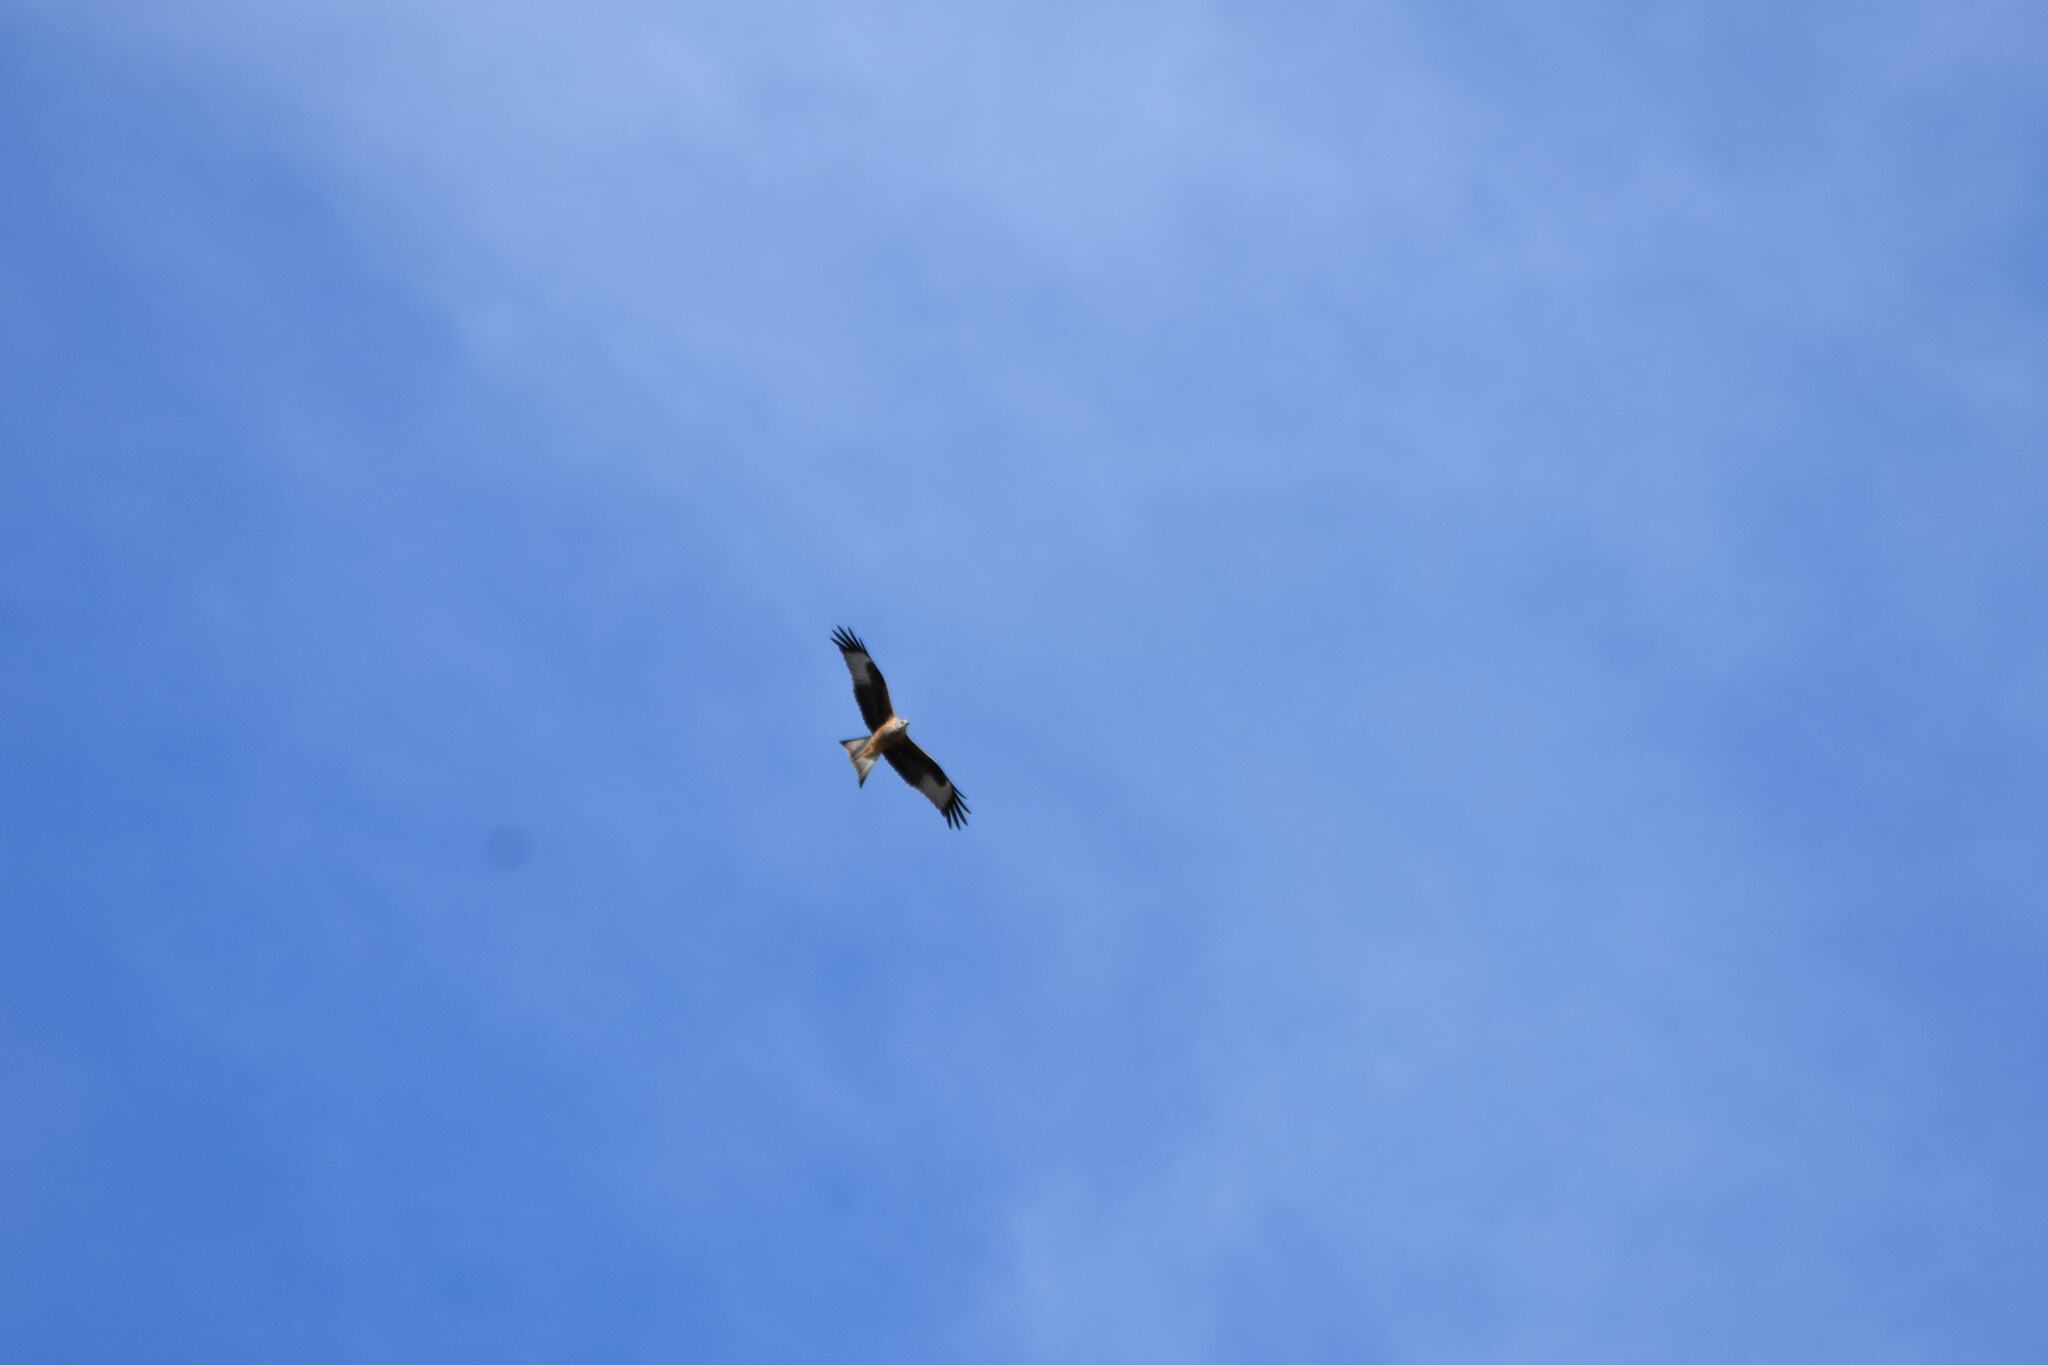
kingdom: Animalia
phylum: Chordata
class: Aves
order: Accipitriformes
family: Accipitridae
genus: Milvus
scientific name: Milvus milvus
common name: Red kite
